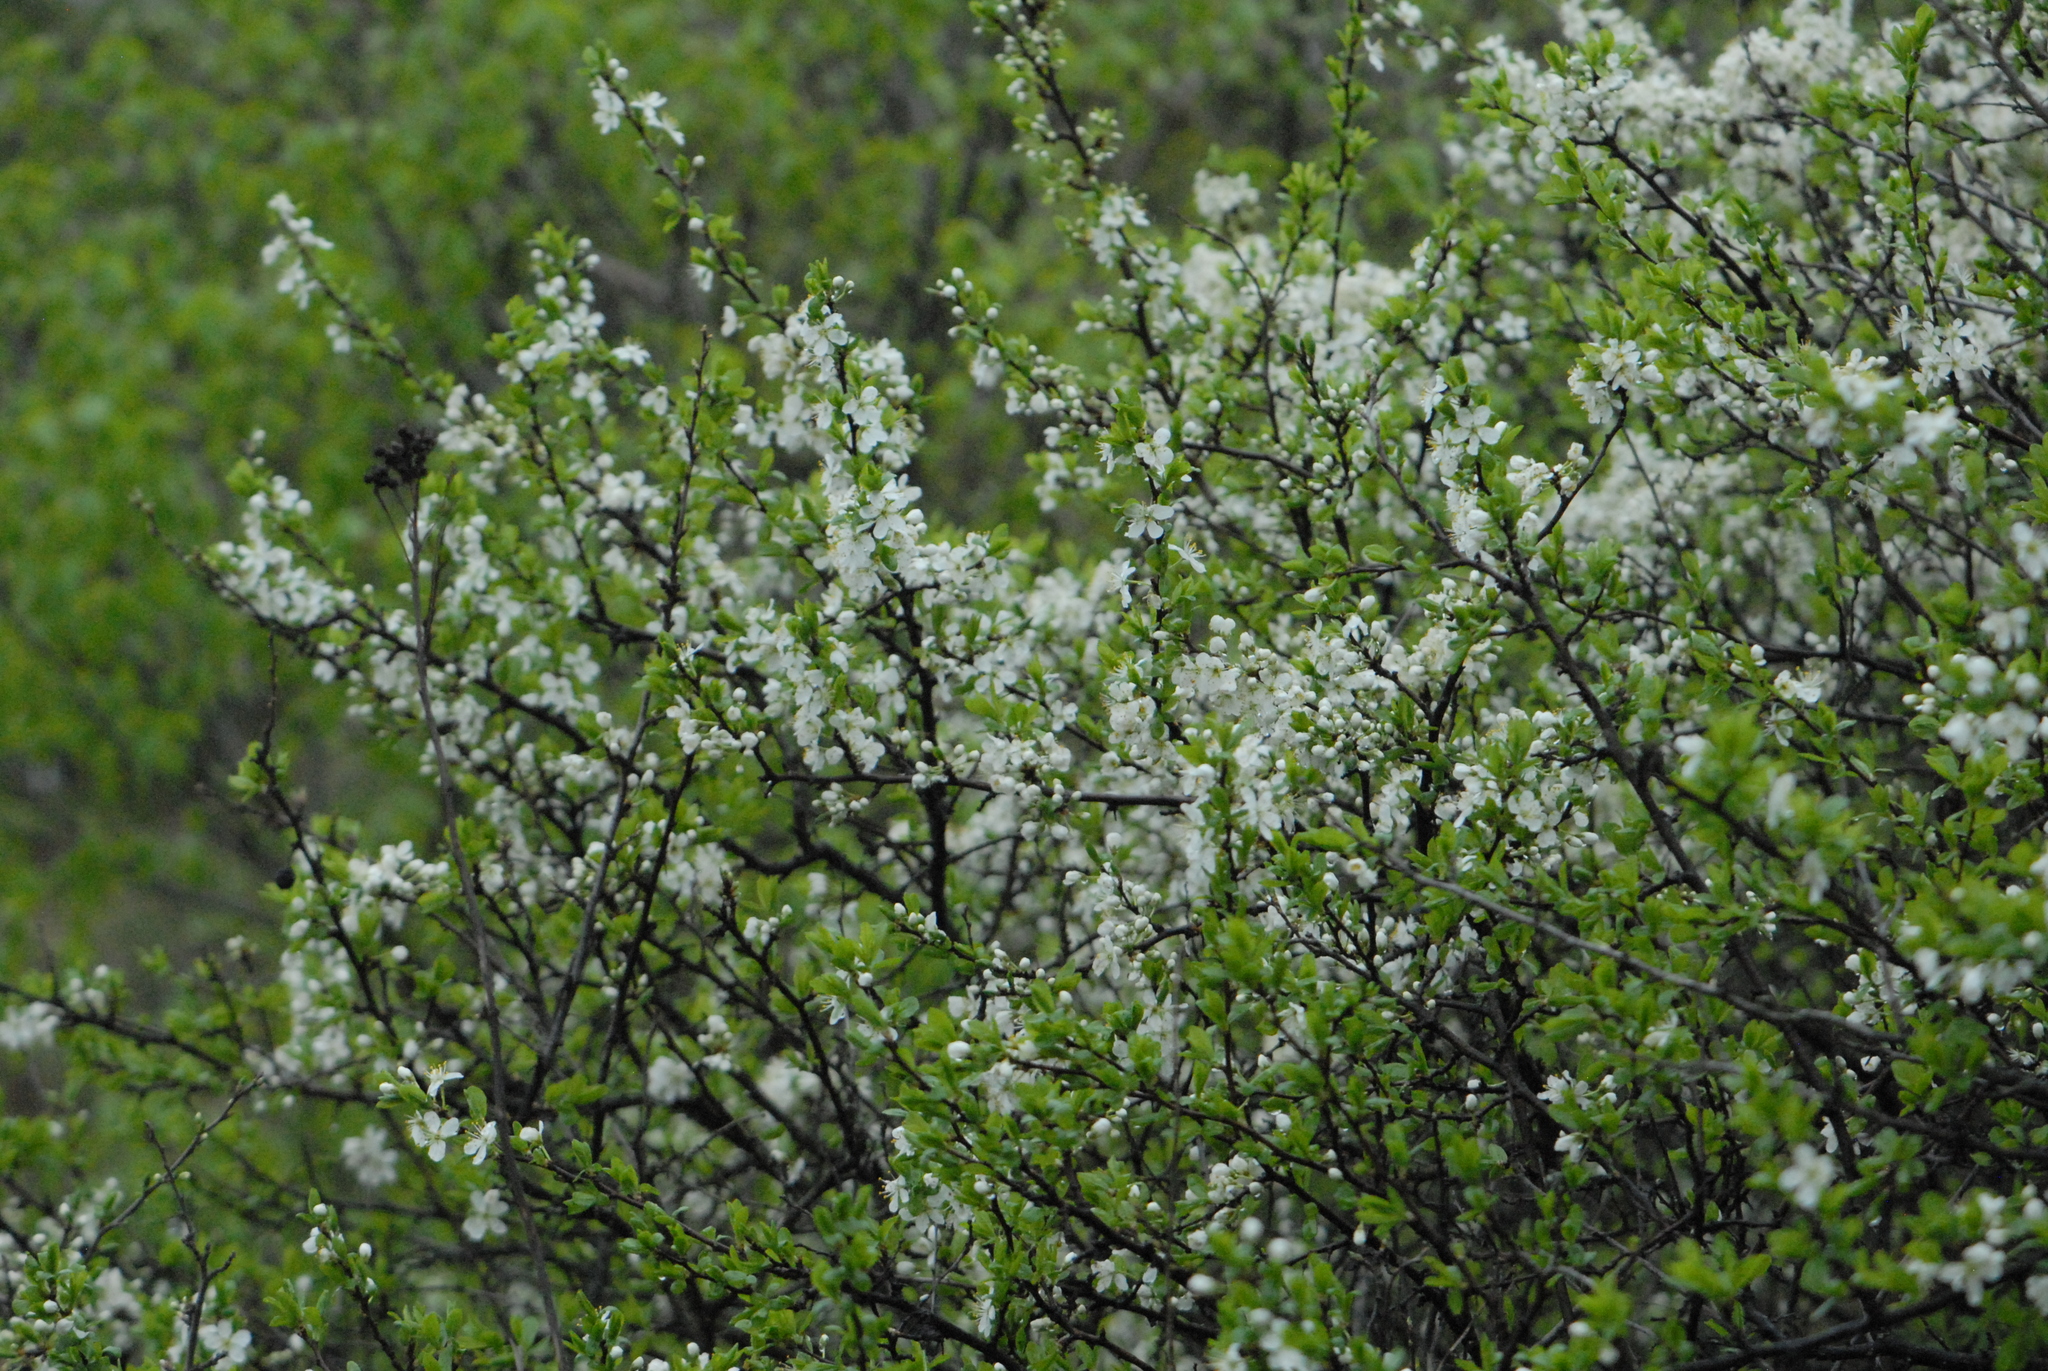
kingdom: Plantae
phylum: Tracheophyta
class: Magnoliopsida
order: Rosales
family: Rosaceae
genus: Prunus
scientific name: Prunus spinosa
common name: Blackthorn
